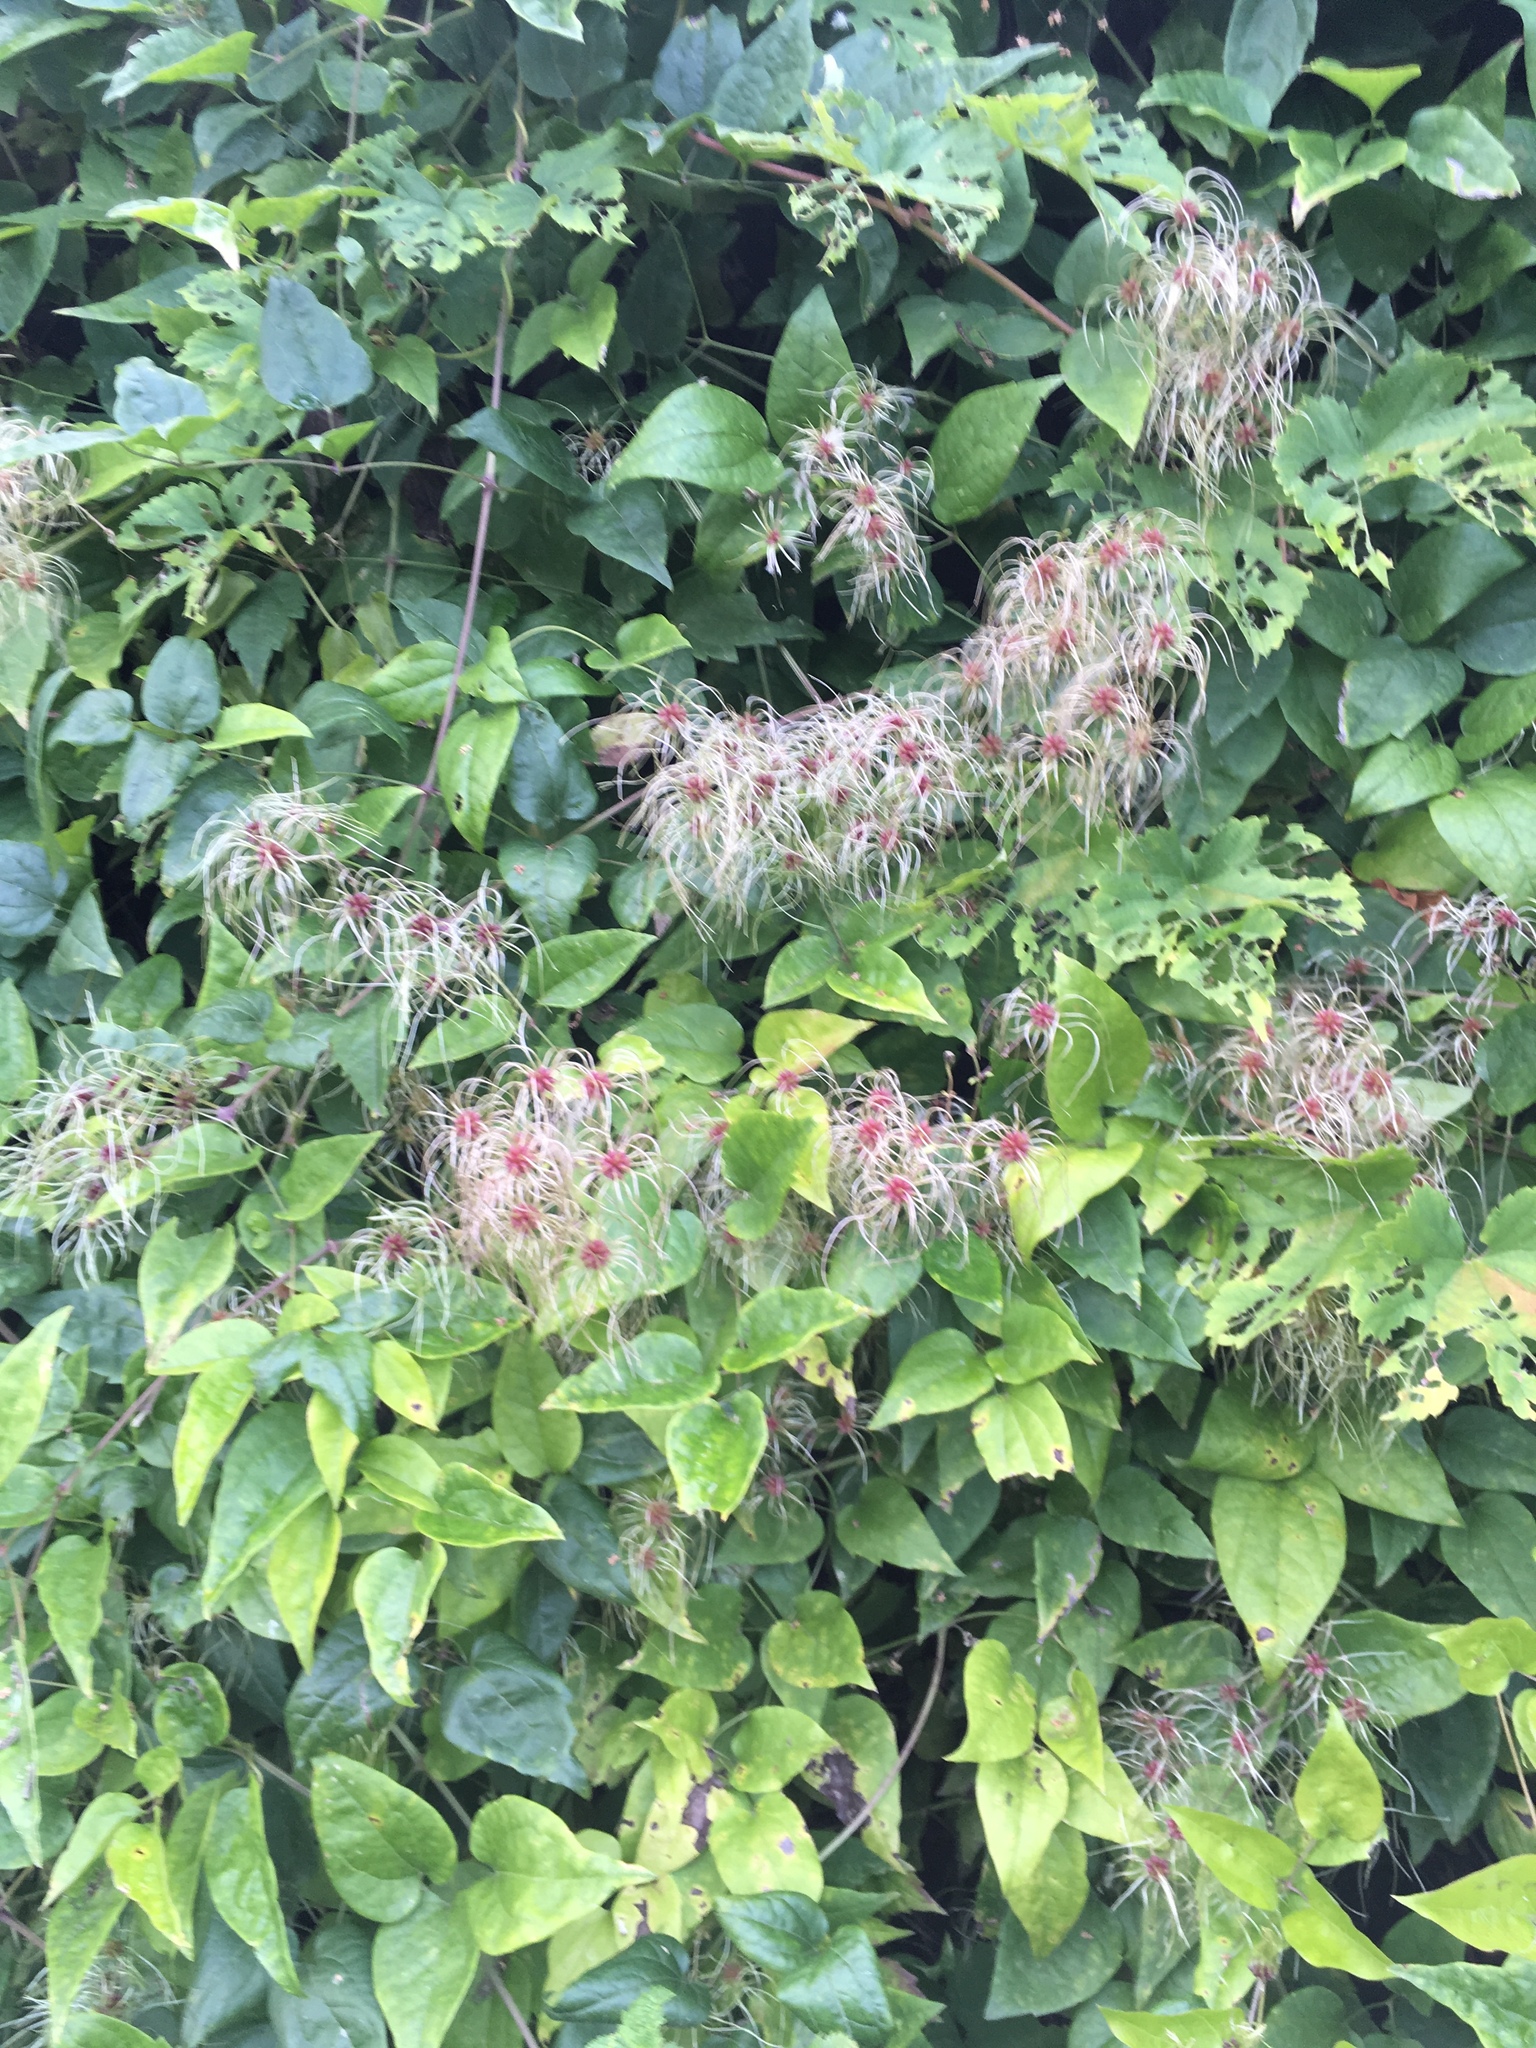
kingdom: Plantae
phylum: Tracheophyta
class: Magnoliopsida
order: Ranunculales
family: Ranunculaceae
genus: Clematis
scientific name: Clematis vitalba
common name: Evergreen clematis
